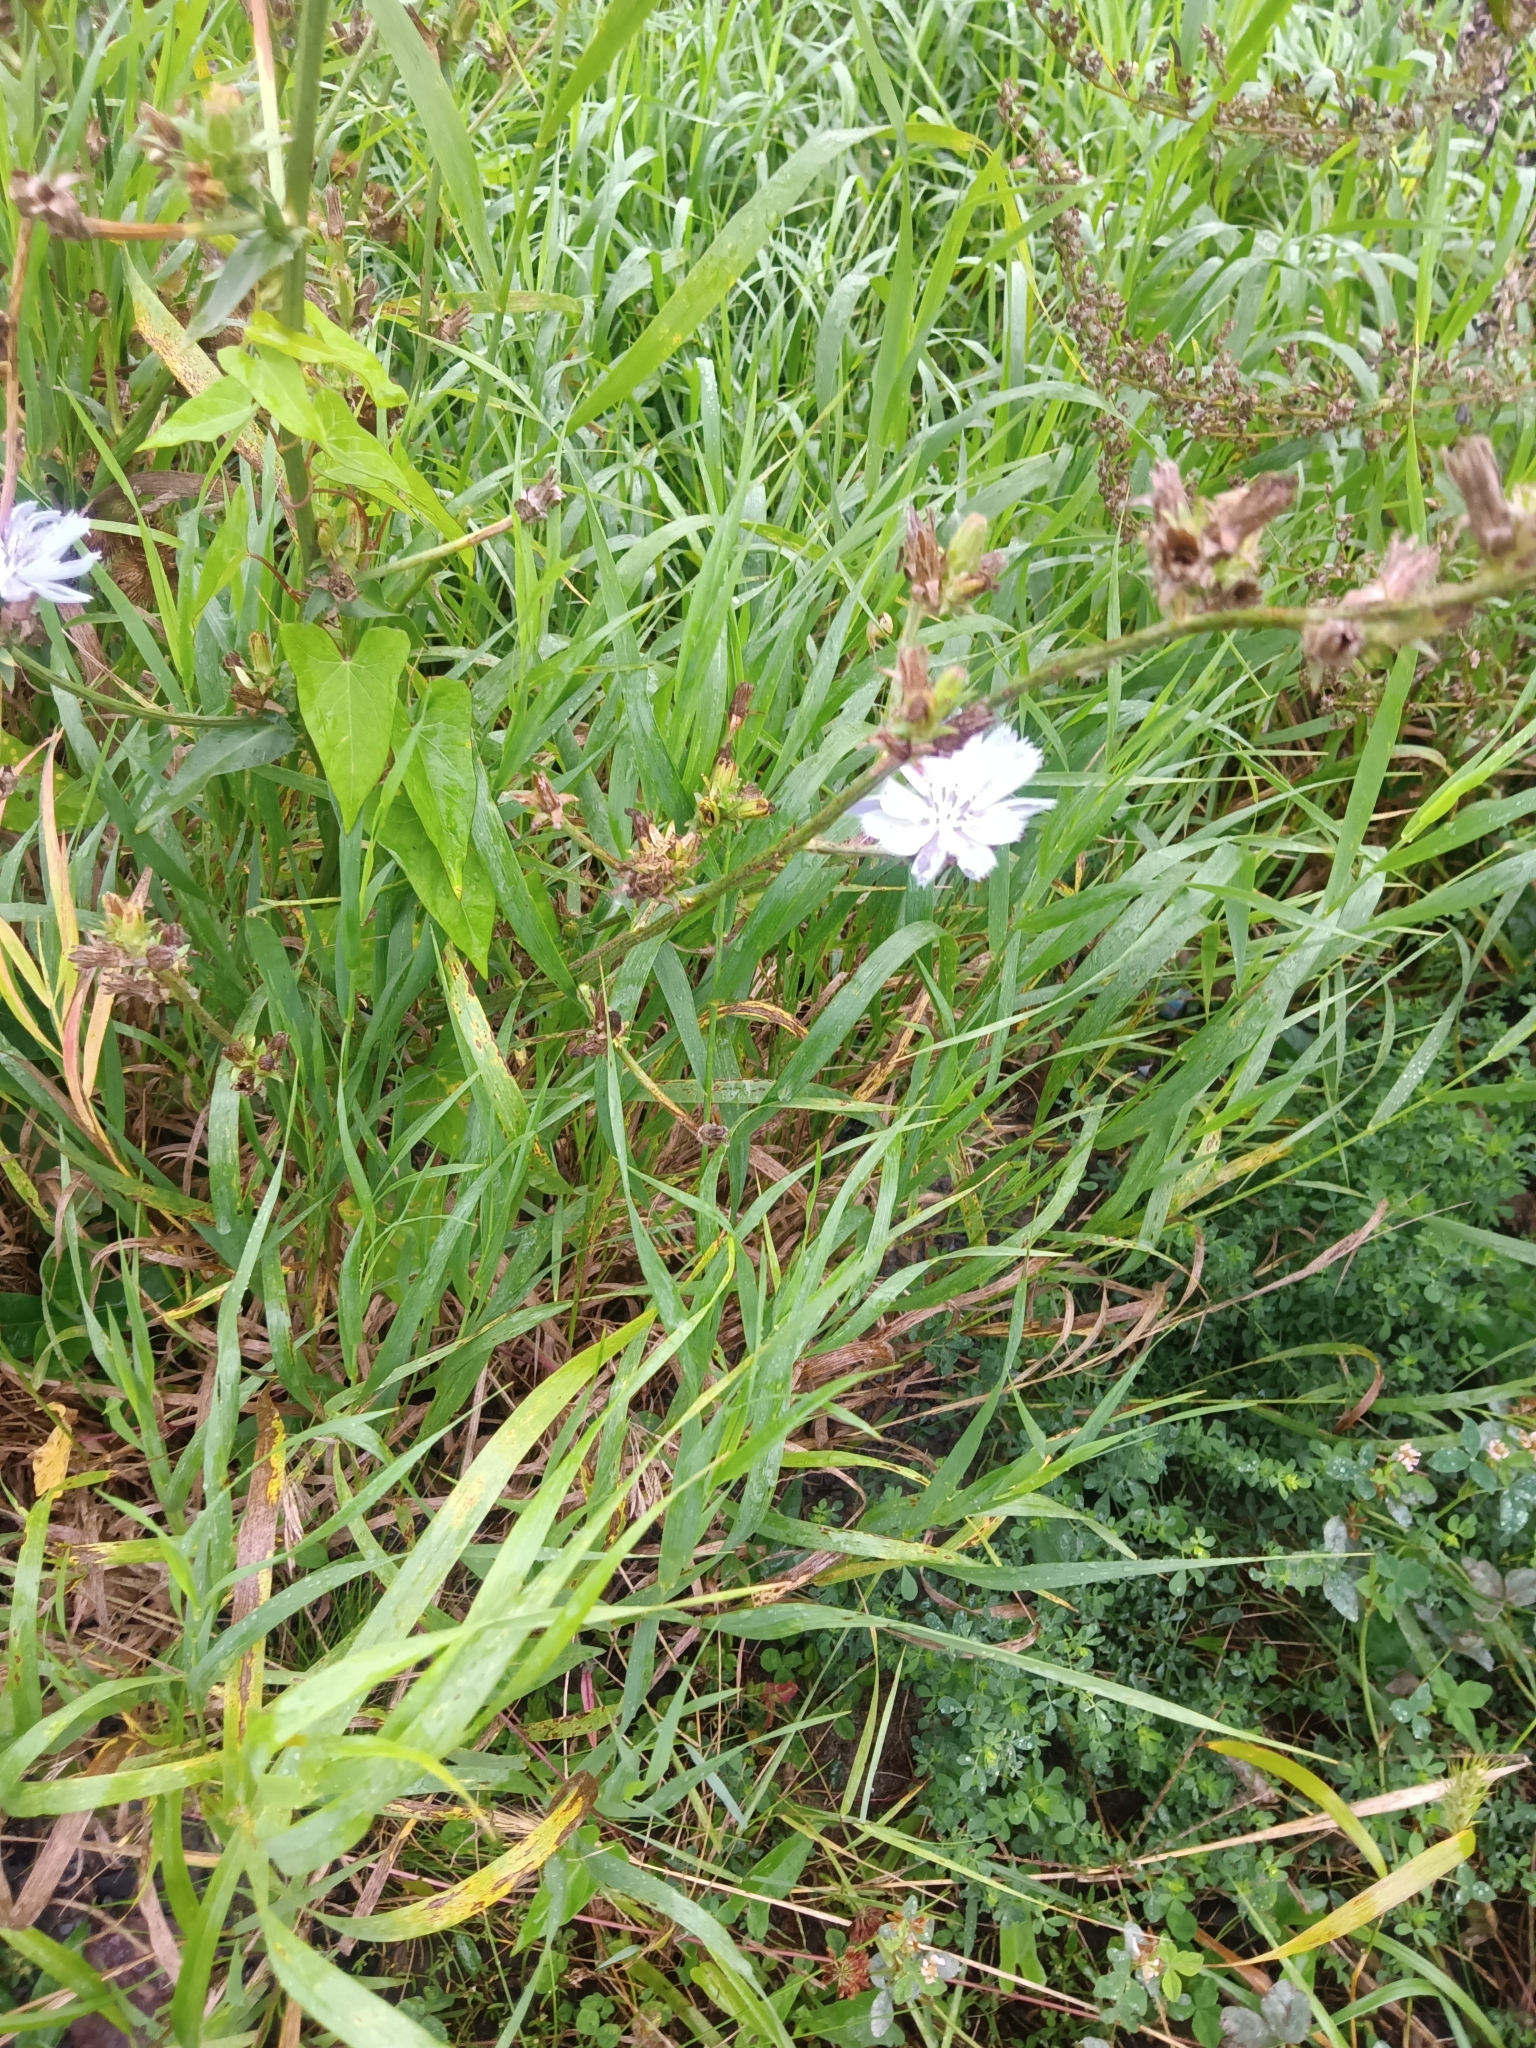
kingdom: Plantae
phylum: Tracheophyta
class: Magnoliopsida
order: Asterales
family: Asteraceae
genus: Cichorium
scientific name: Cichorium intybus
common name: Chicory
